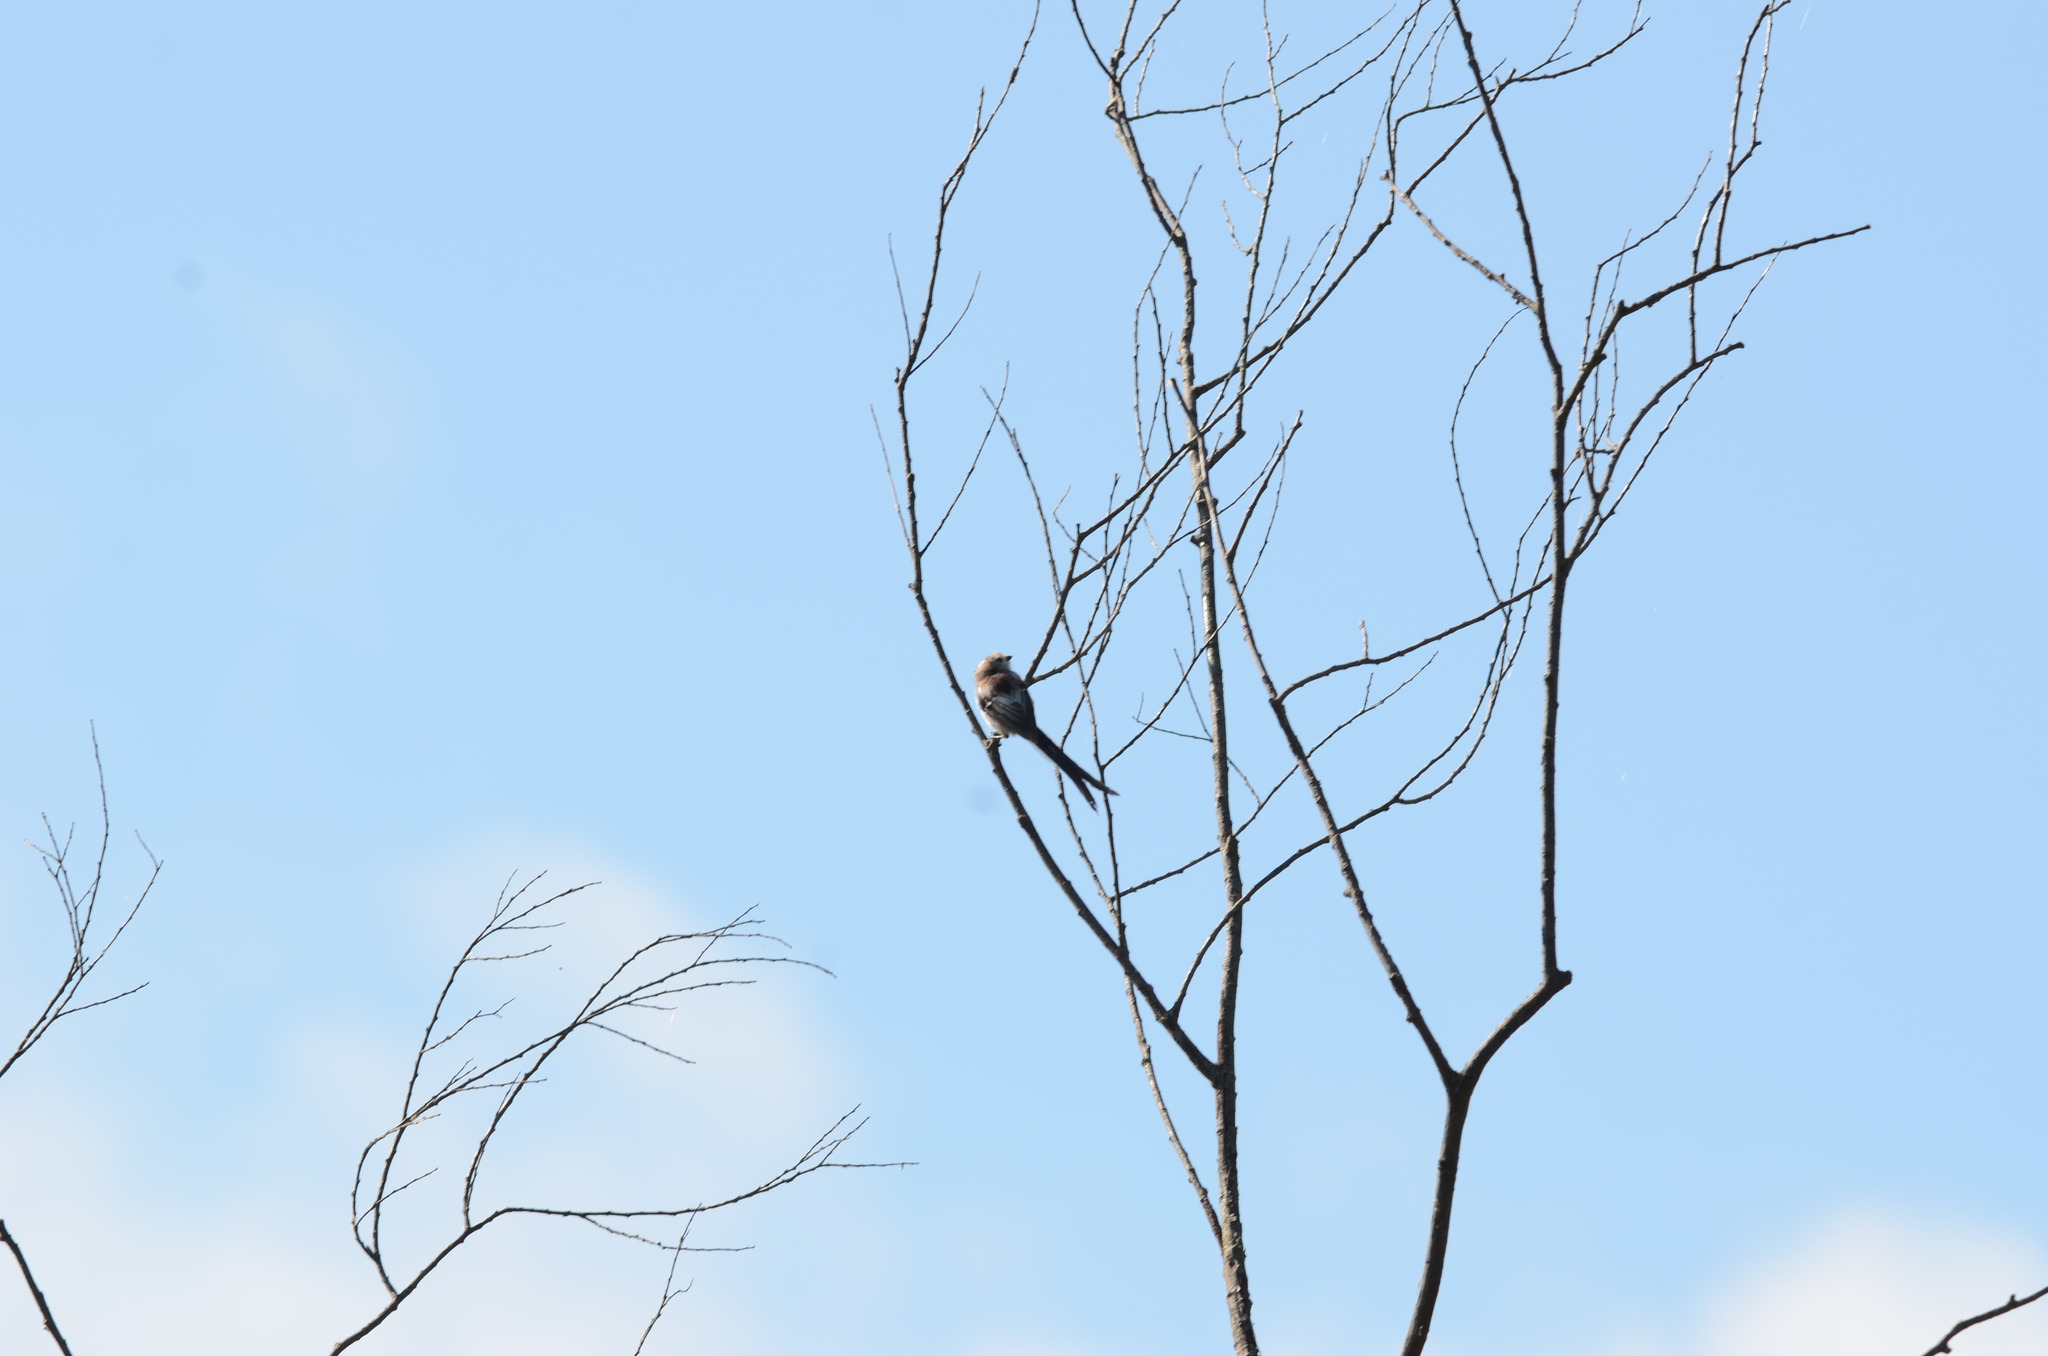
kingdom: Animalia
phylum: Chordata
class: Aves
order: Passeriformes
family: Aegithalidae
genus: Aegithalos
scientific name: Aegithalos caudatus
